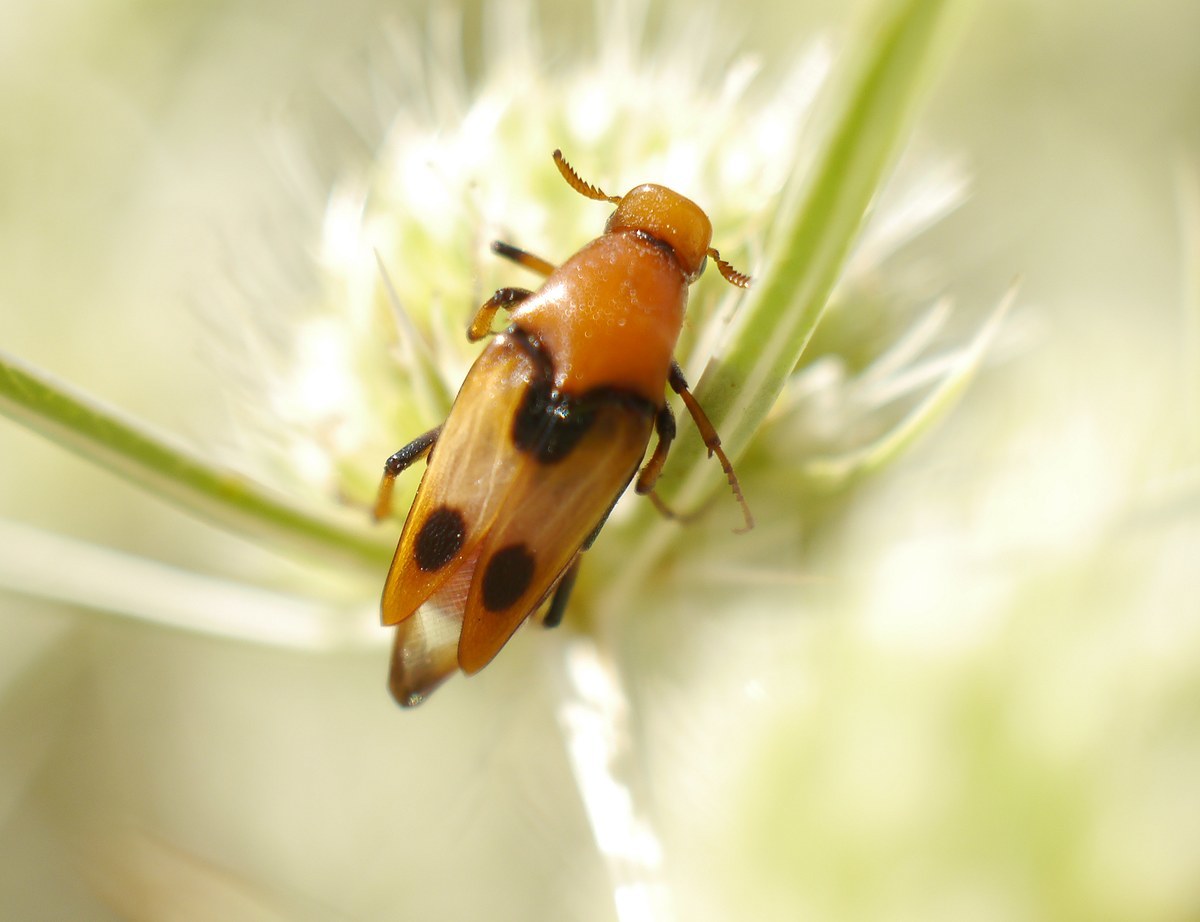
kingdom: Animalia
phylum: Arthropoda
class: Insecta
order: Coleoptera
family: Ripiphoridae
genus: Macrosiagon
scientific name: Macrosiagon bimaculata
